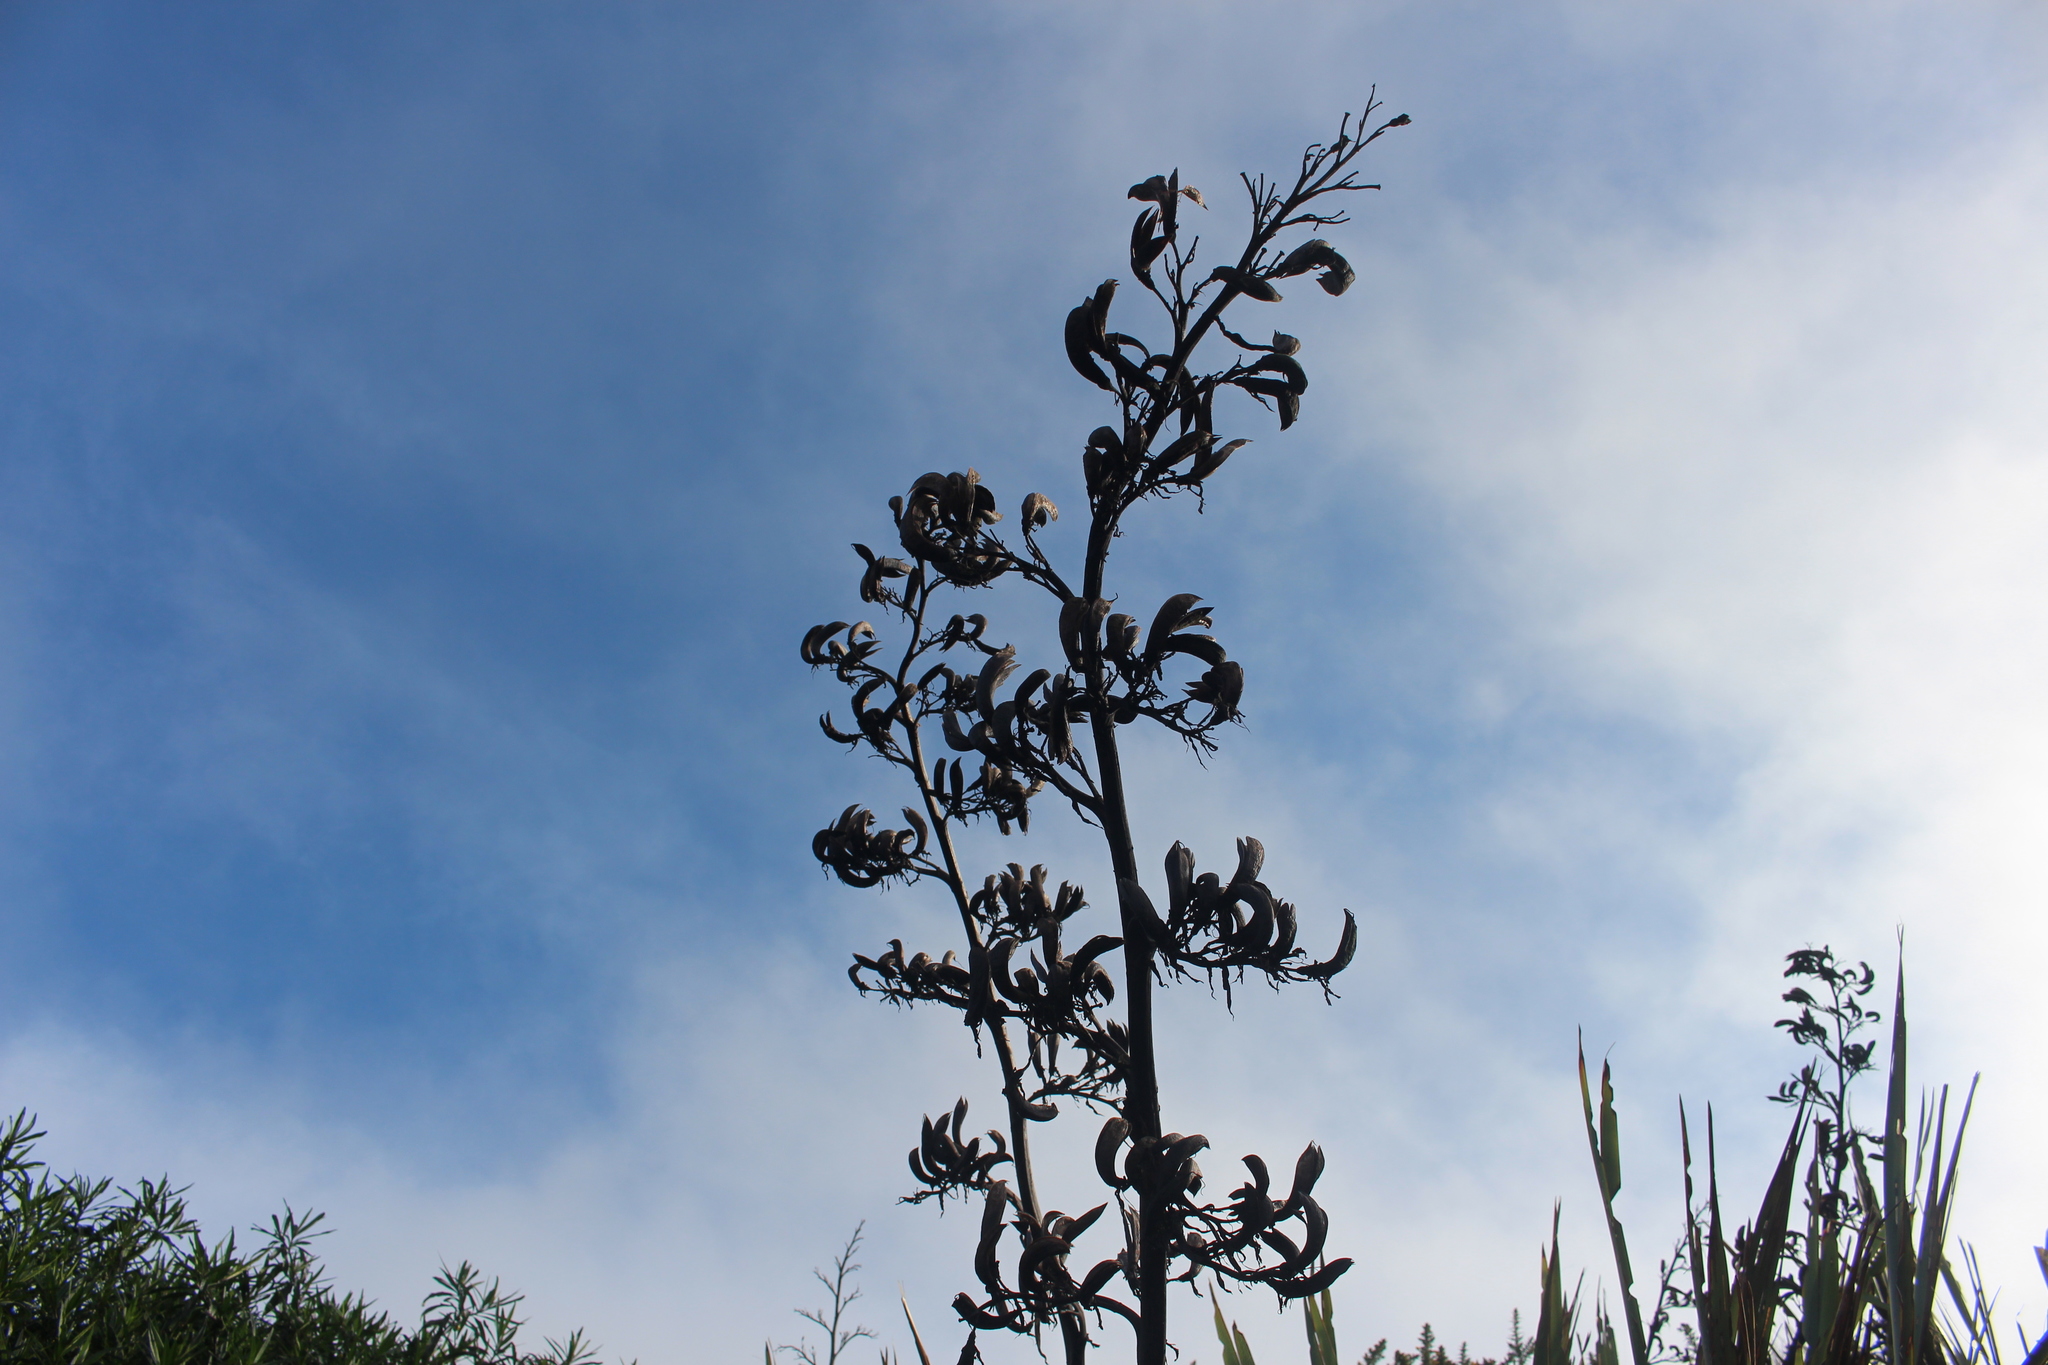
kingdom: Plantae
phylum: Tracheophyta
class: Liliopsida
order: Asparagales
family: Asphodelaceae
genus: Phormium
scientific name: Phormium tenax
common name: New zealand flax
